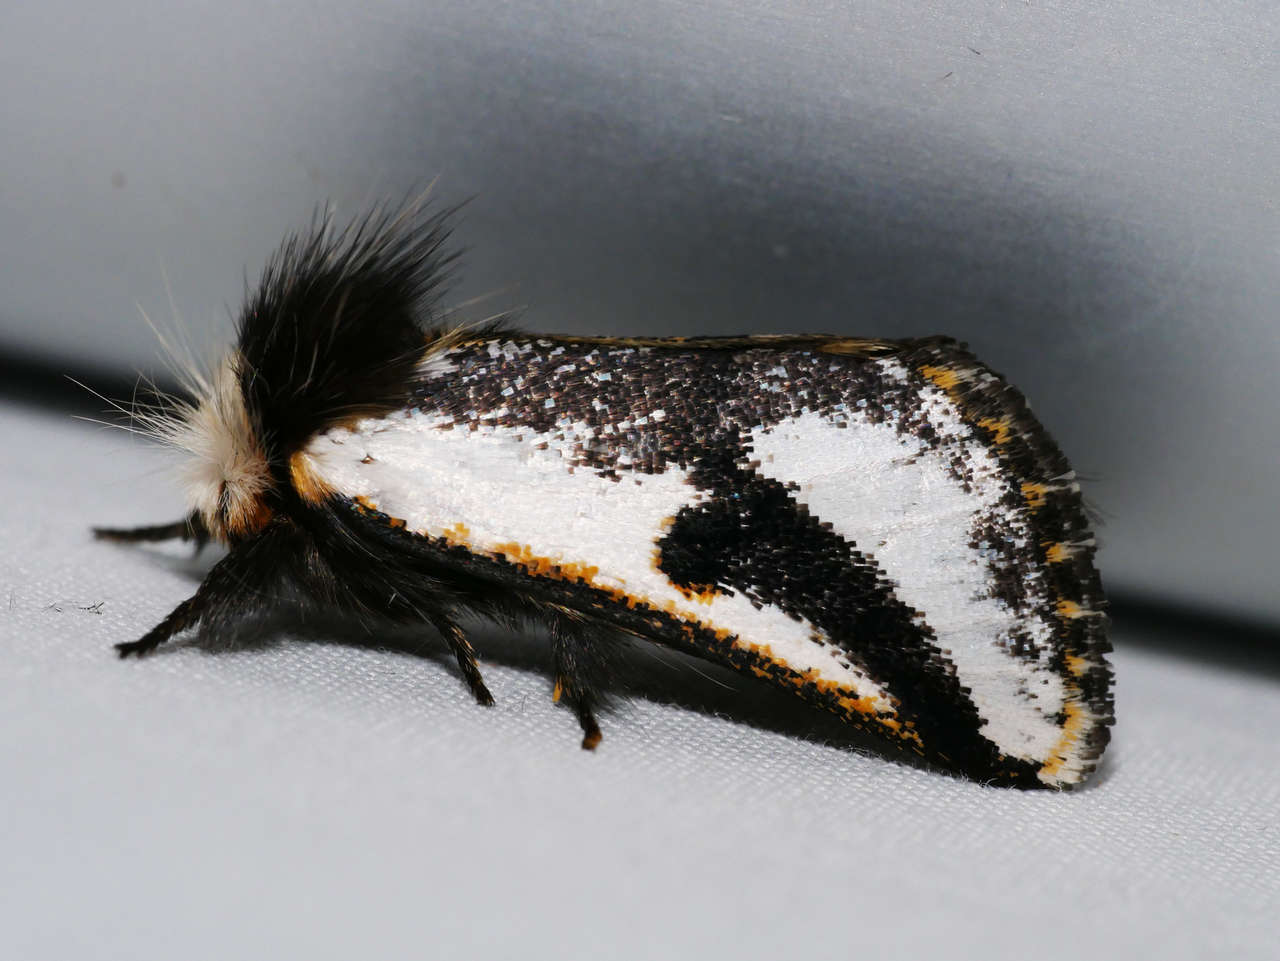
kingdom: Animalia
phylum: Arthropoda
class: Insecta
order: Lepidoptera
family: Notodontidae
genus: Epicoma
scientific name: Epicoma melanospila
